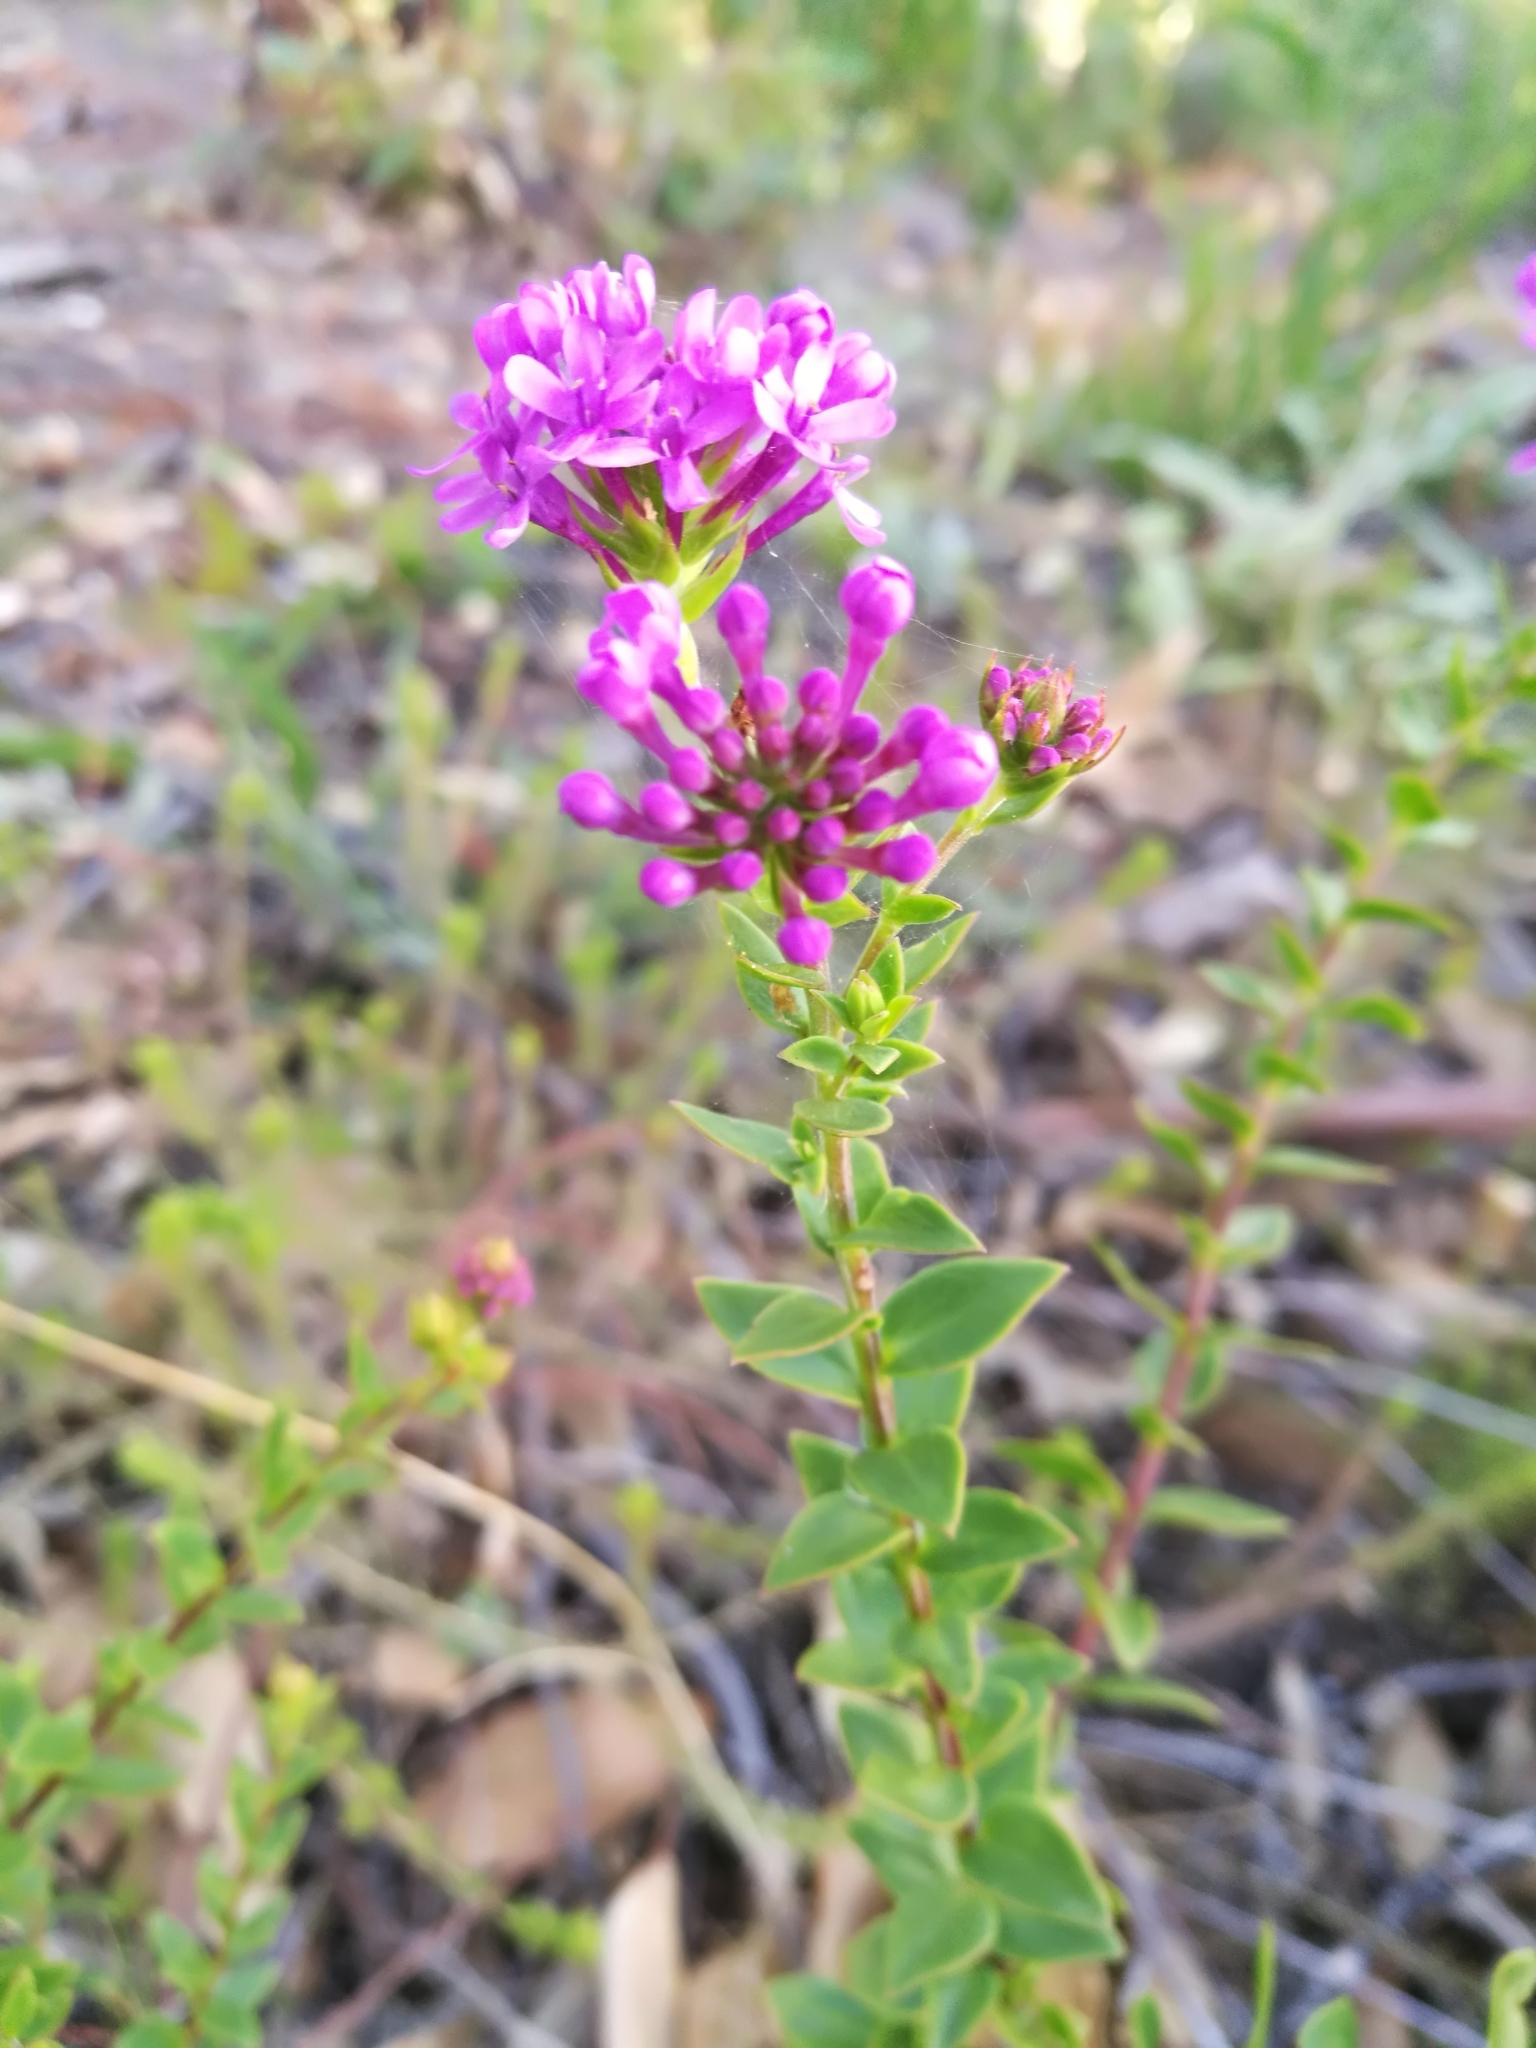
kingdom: Plantae
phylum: Tracheophyta
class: Magnoliopsida
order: Lamiales
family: Scrophulariaceae
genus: Selago
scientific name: Selago myrtifolia
